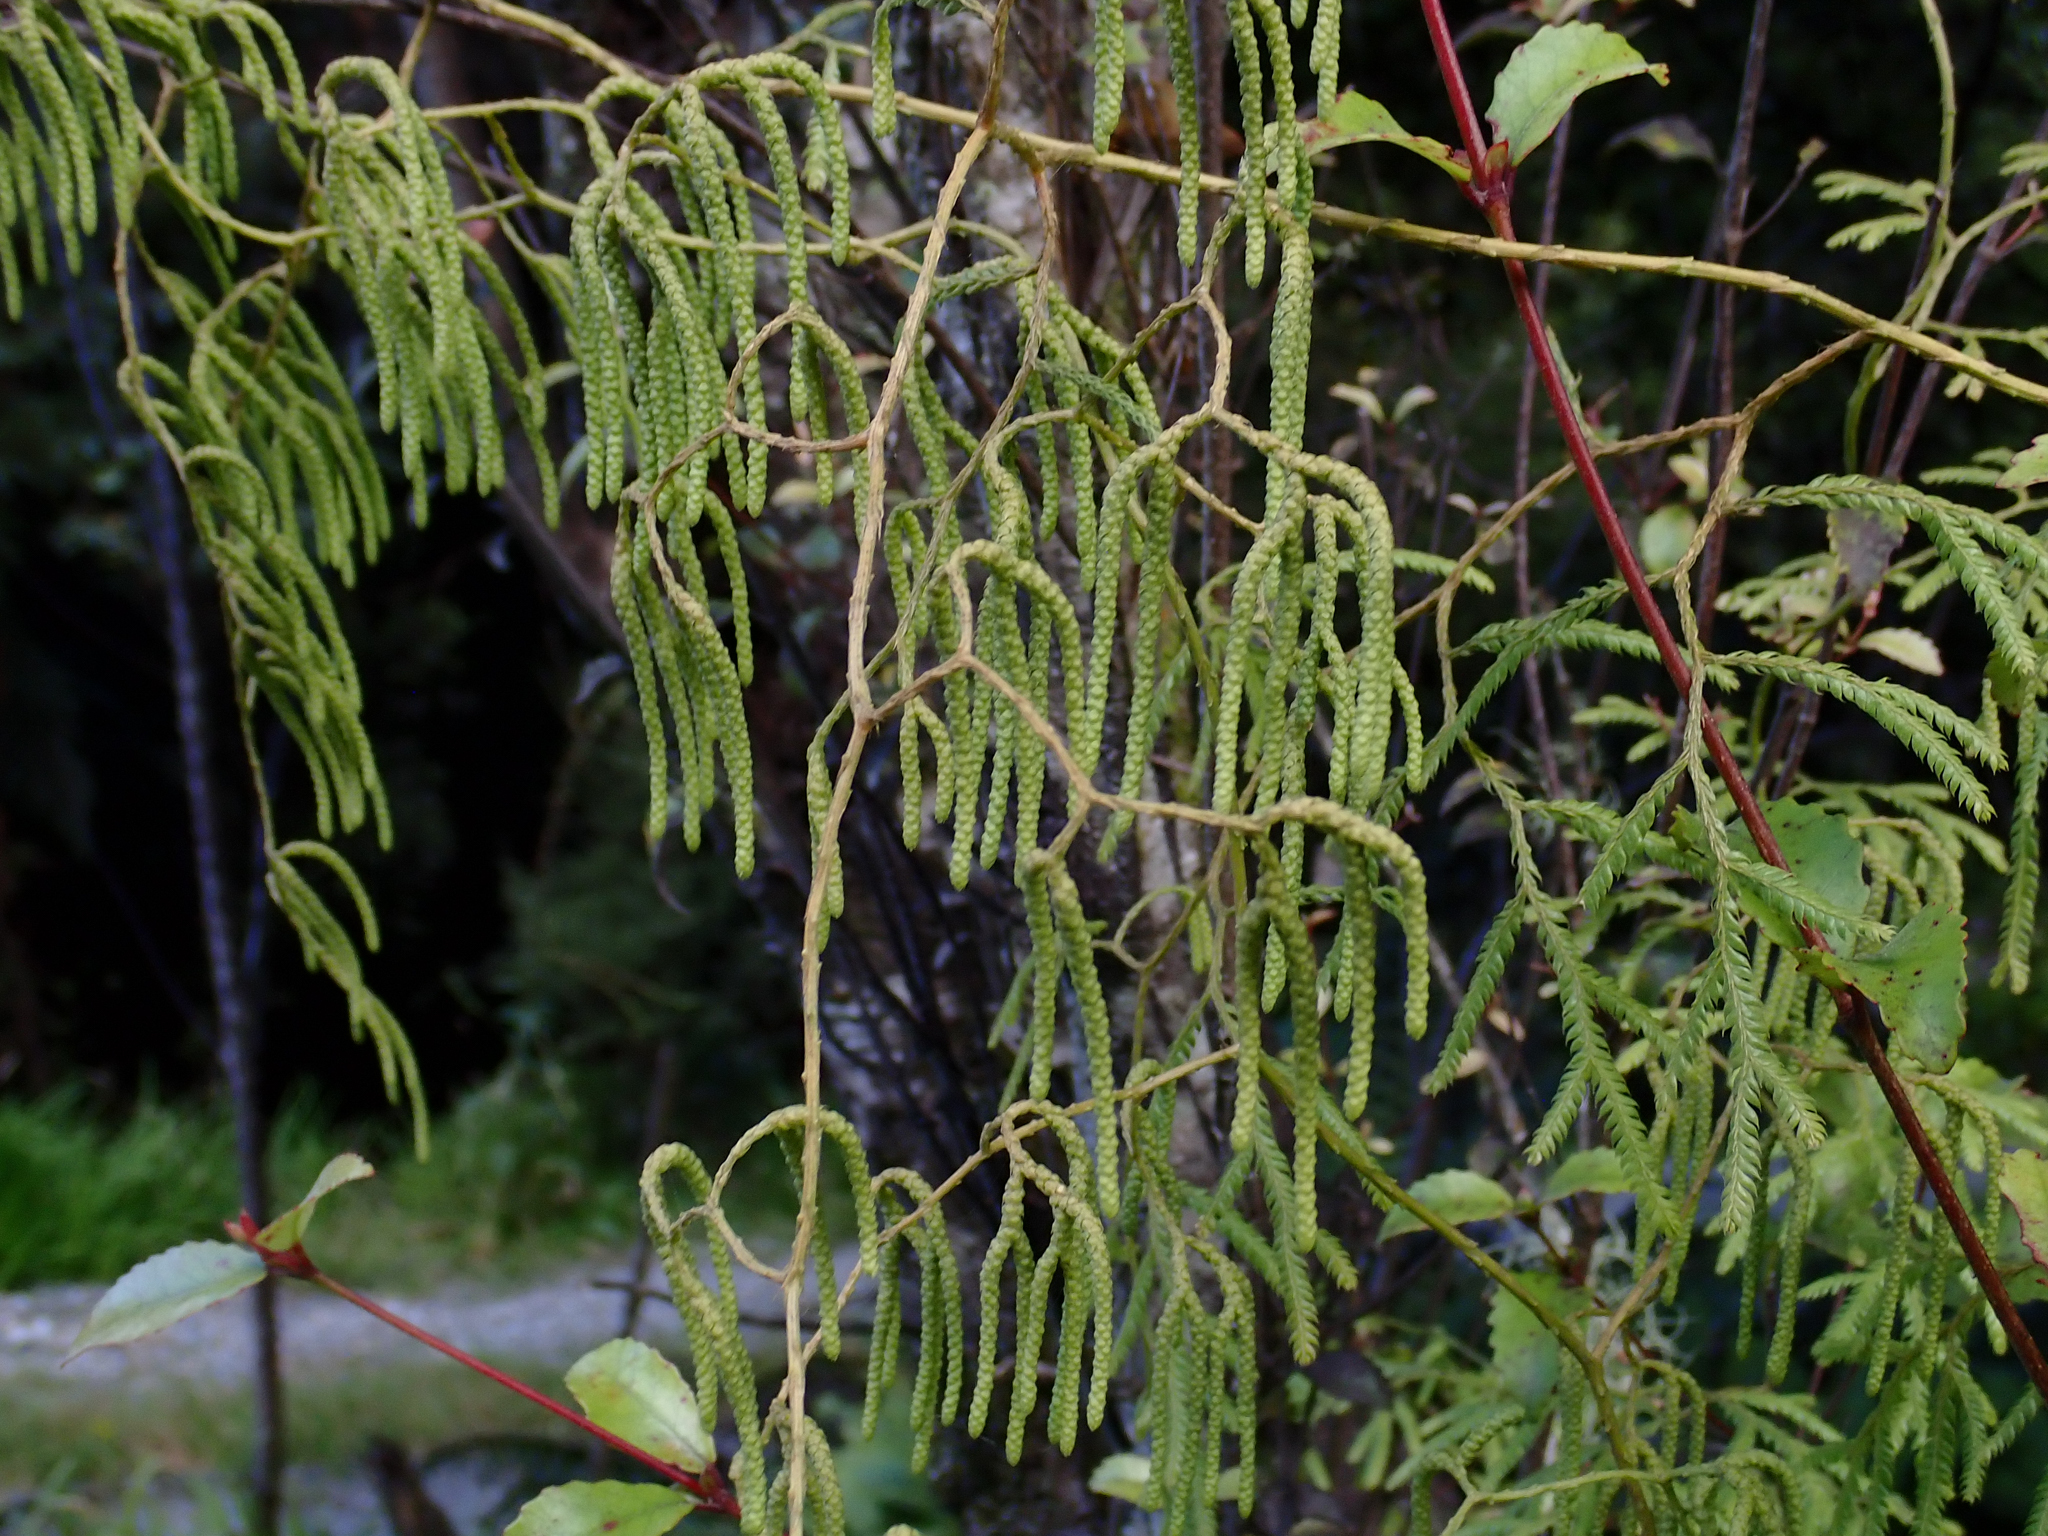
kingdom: Plantae
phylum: Tracheophyta
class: Lycopodiopsida
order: Lycopodiales
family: Lycopodiaceae
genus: Lycopodium
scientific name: Lycopodium volubile
